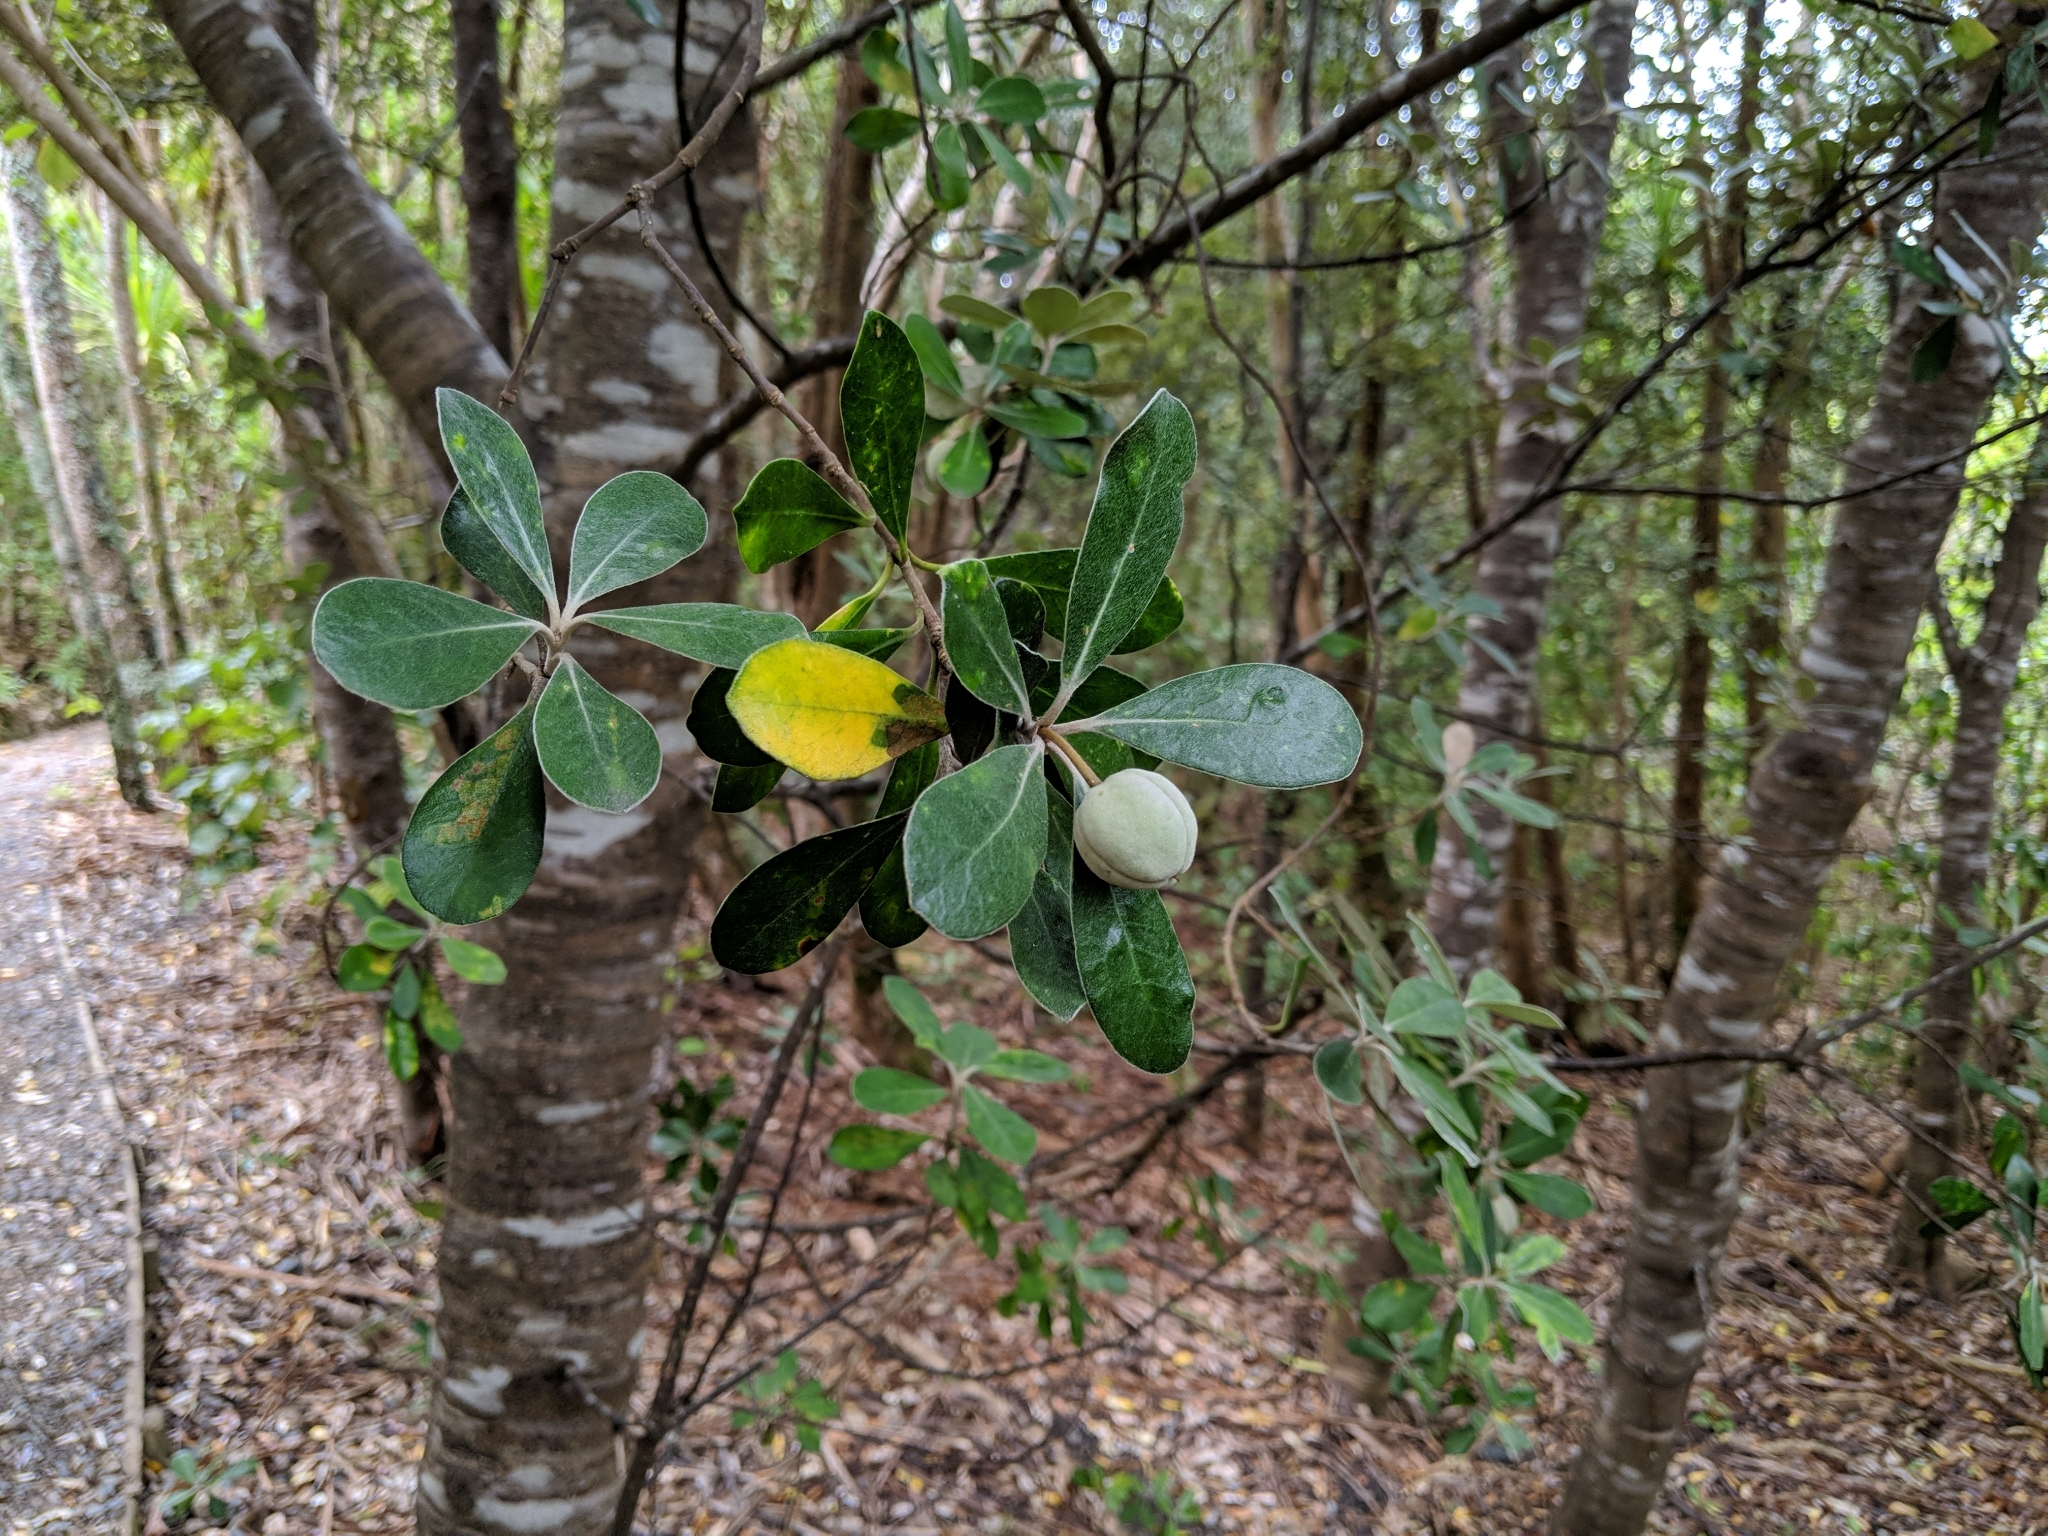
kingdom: Plantae
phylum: Tracheophyta
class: Magnoliopsida
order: Apiales
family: Pittosporaceae
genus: Pittosporum
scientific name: Pittosporum crassifolium
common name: Karo
